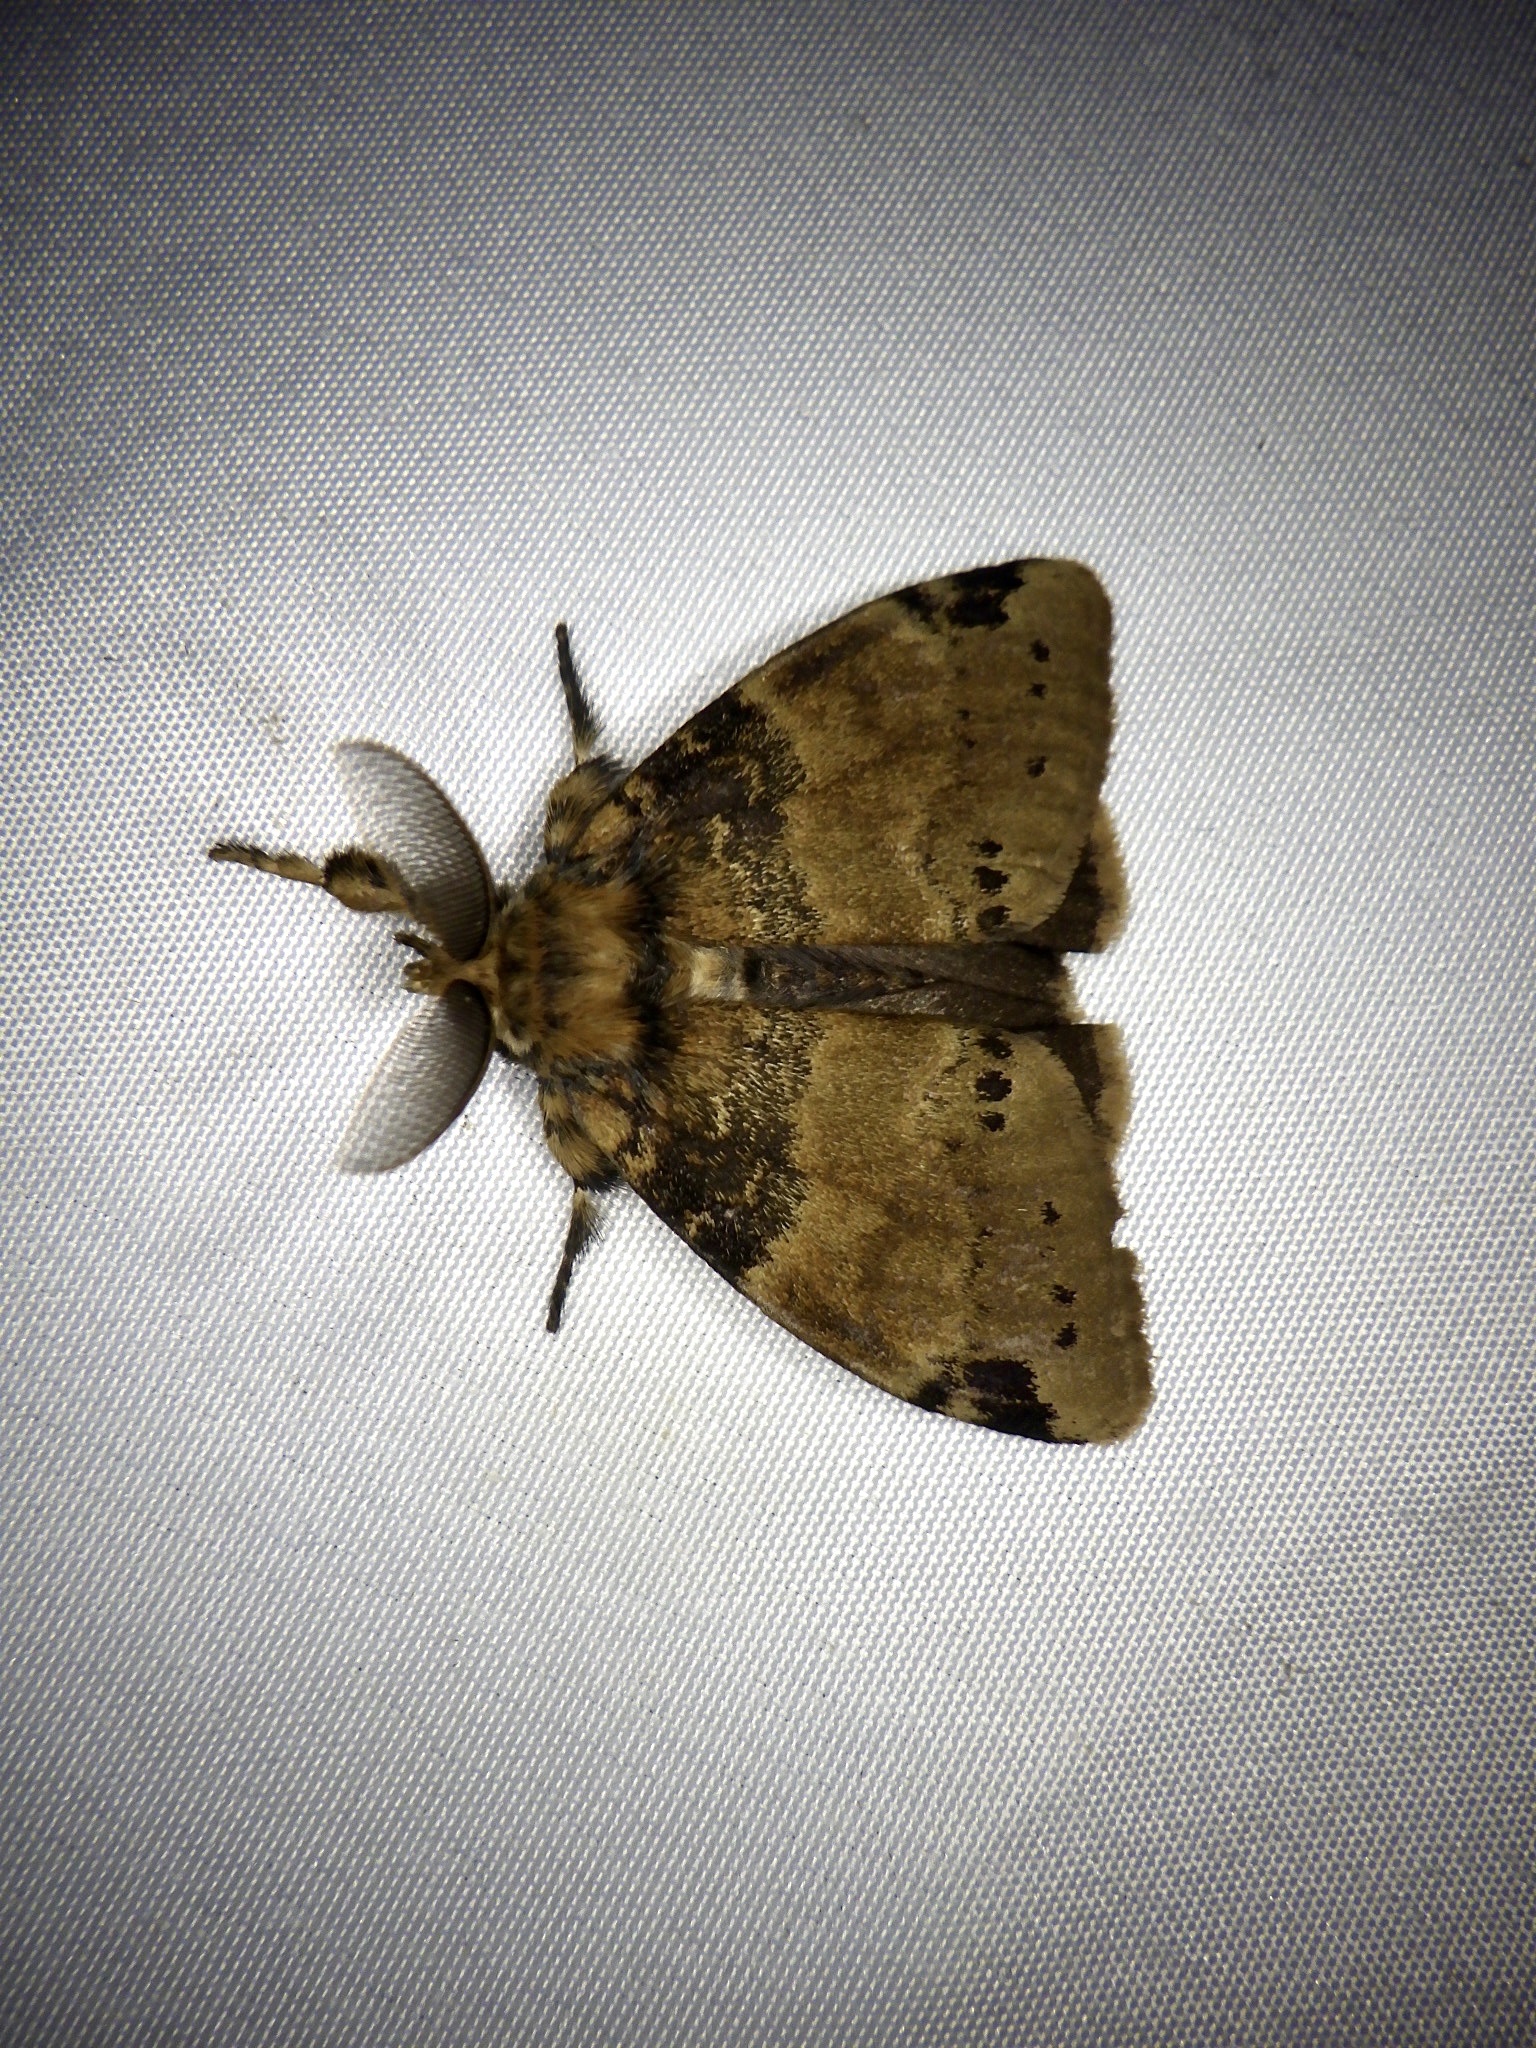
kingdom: Animalia
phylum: Arthropoda
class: Insecta
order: Lepidoptera
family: Erebidae
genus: Ilema
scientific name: Ilema eurydice
